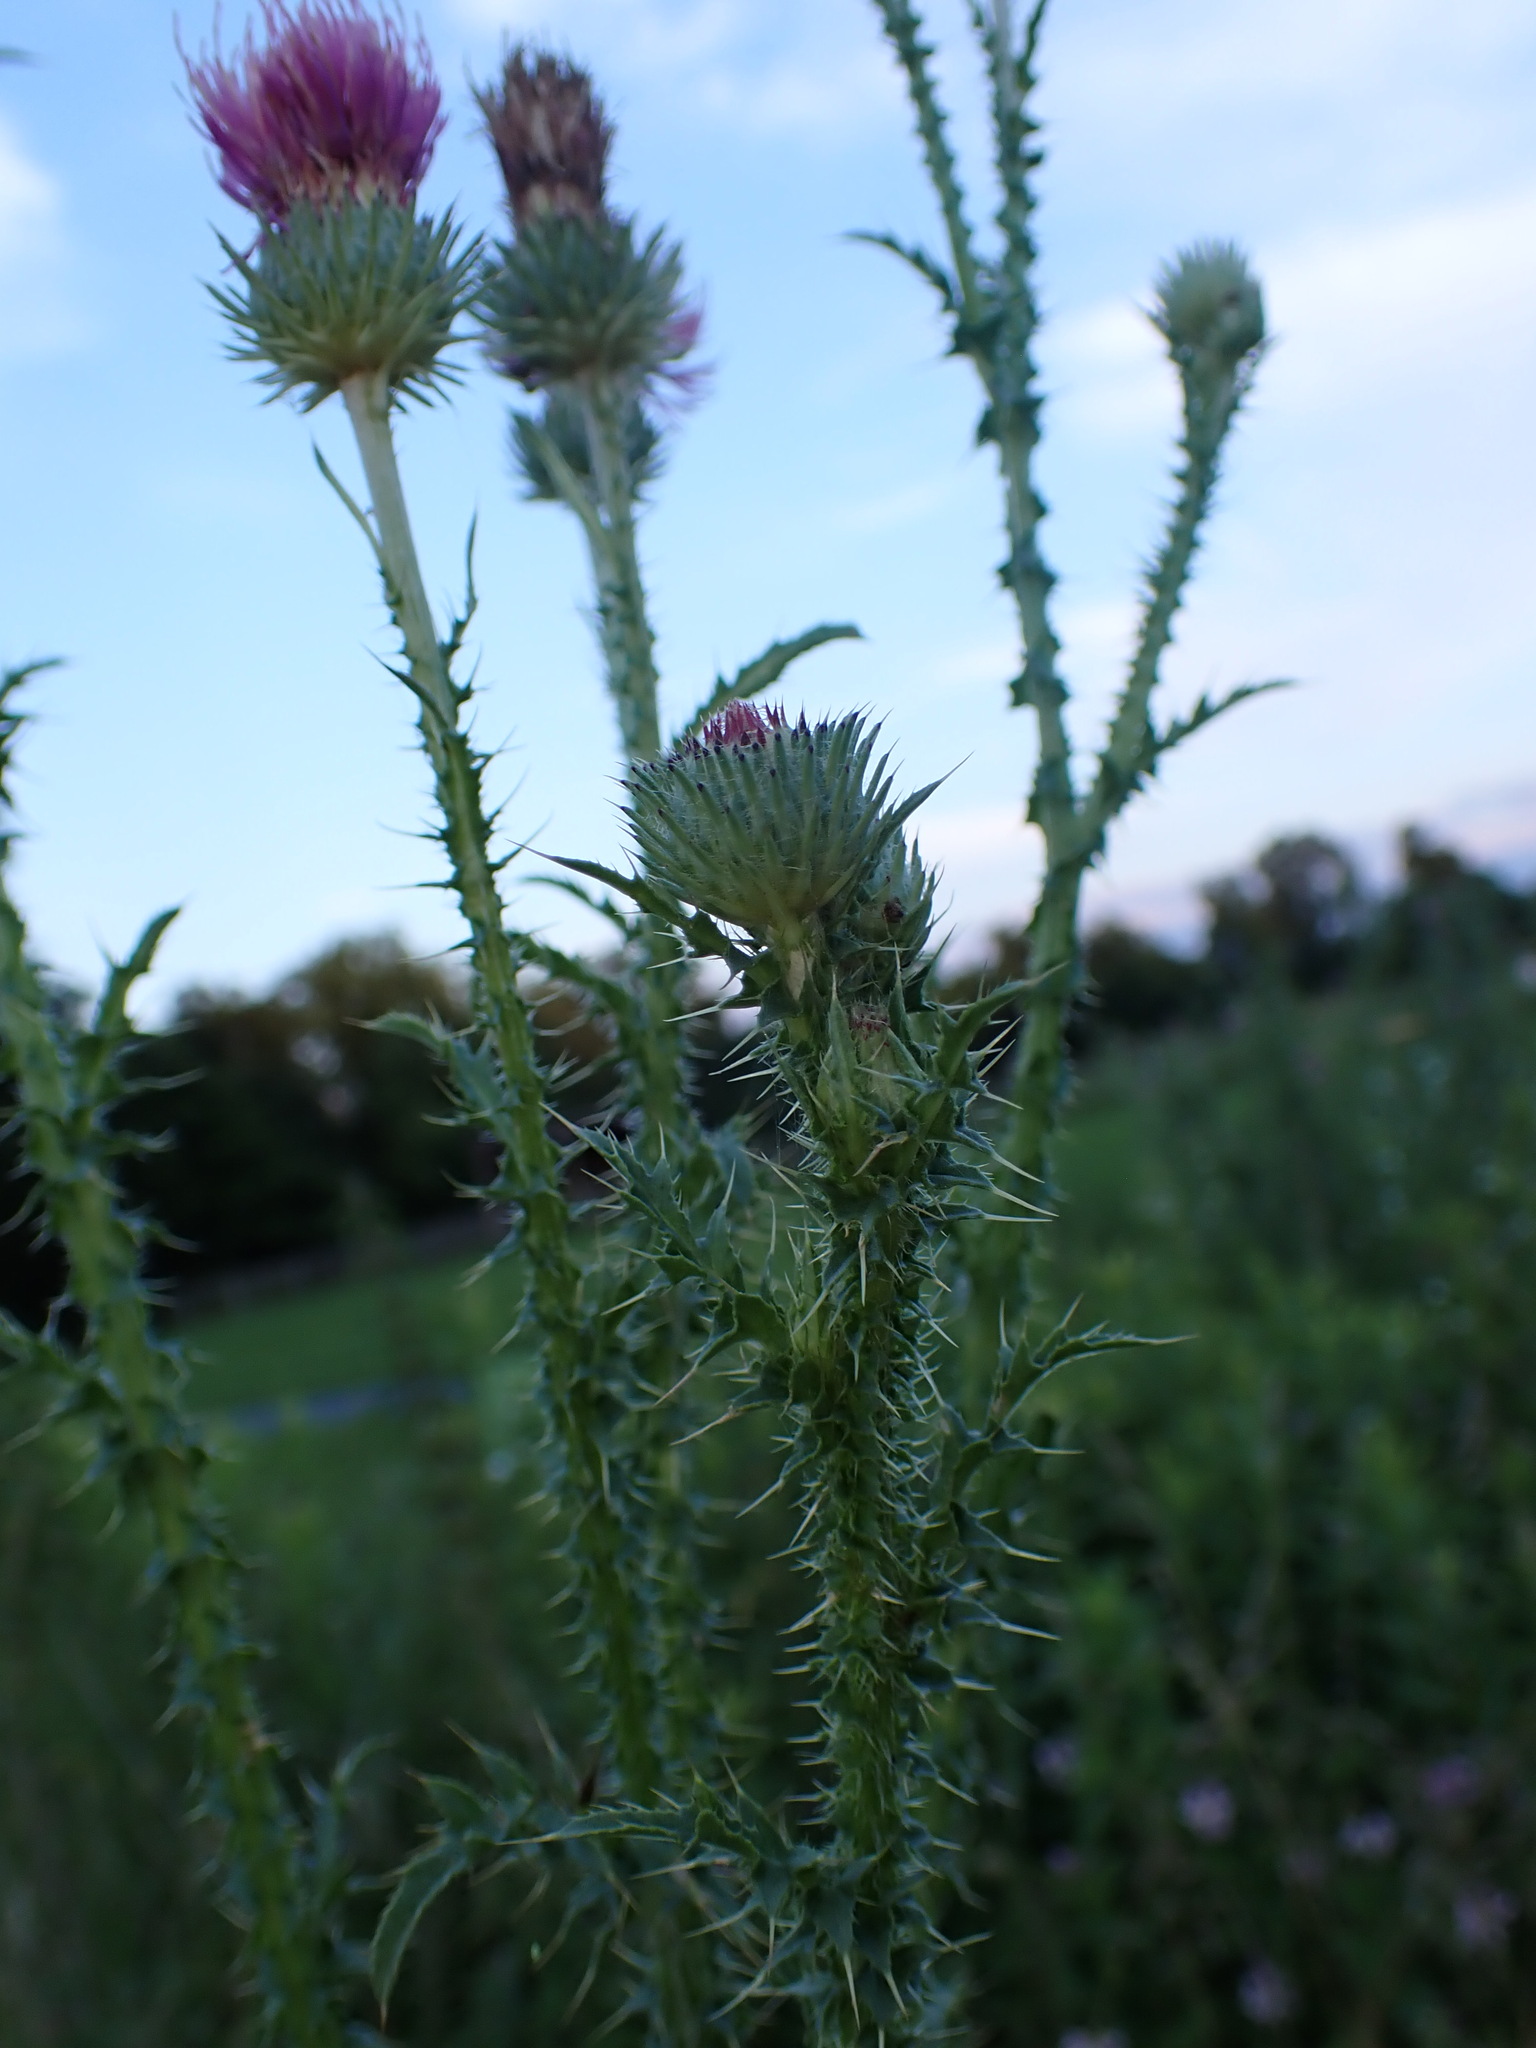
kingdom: Plantae
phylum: Tracheophyta
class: Magnoliopsida
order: Asterales
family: Asteraceae
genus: Carduus
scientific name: Carduus acanthoides
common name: Plumeless thistle
